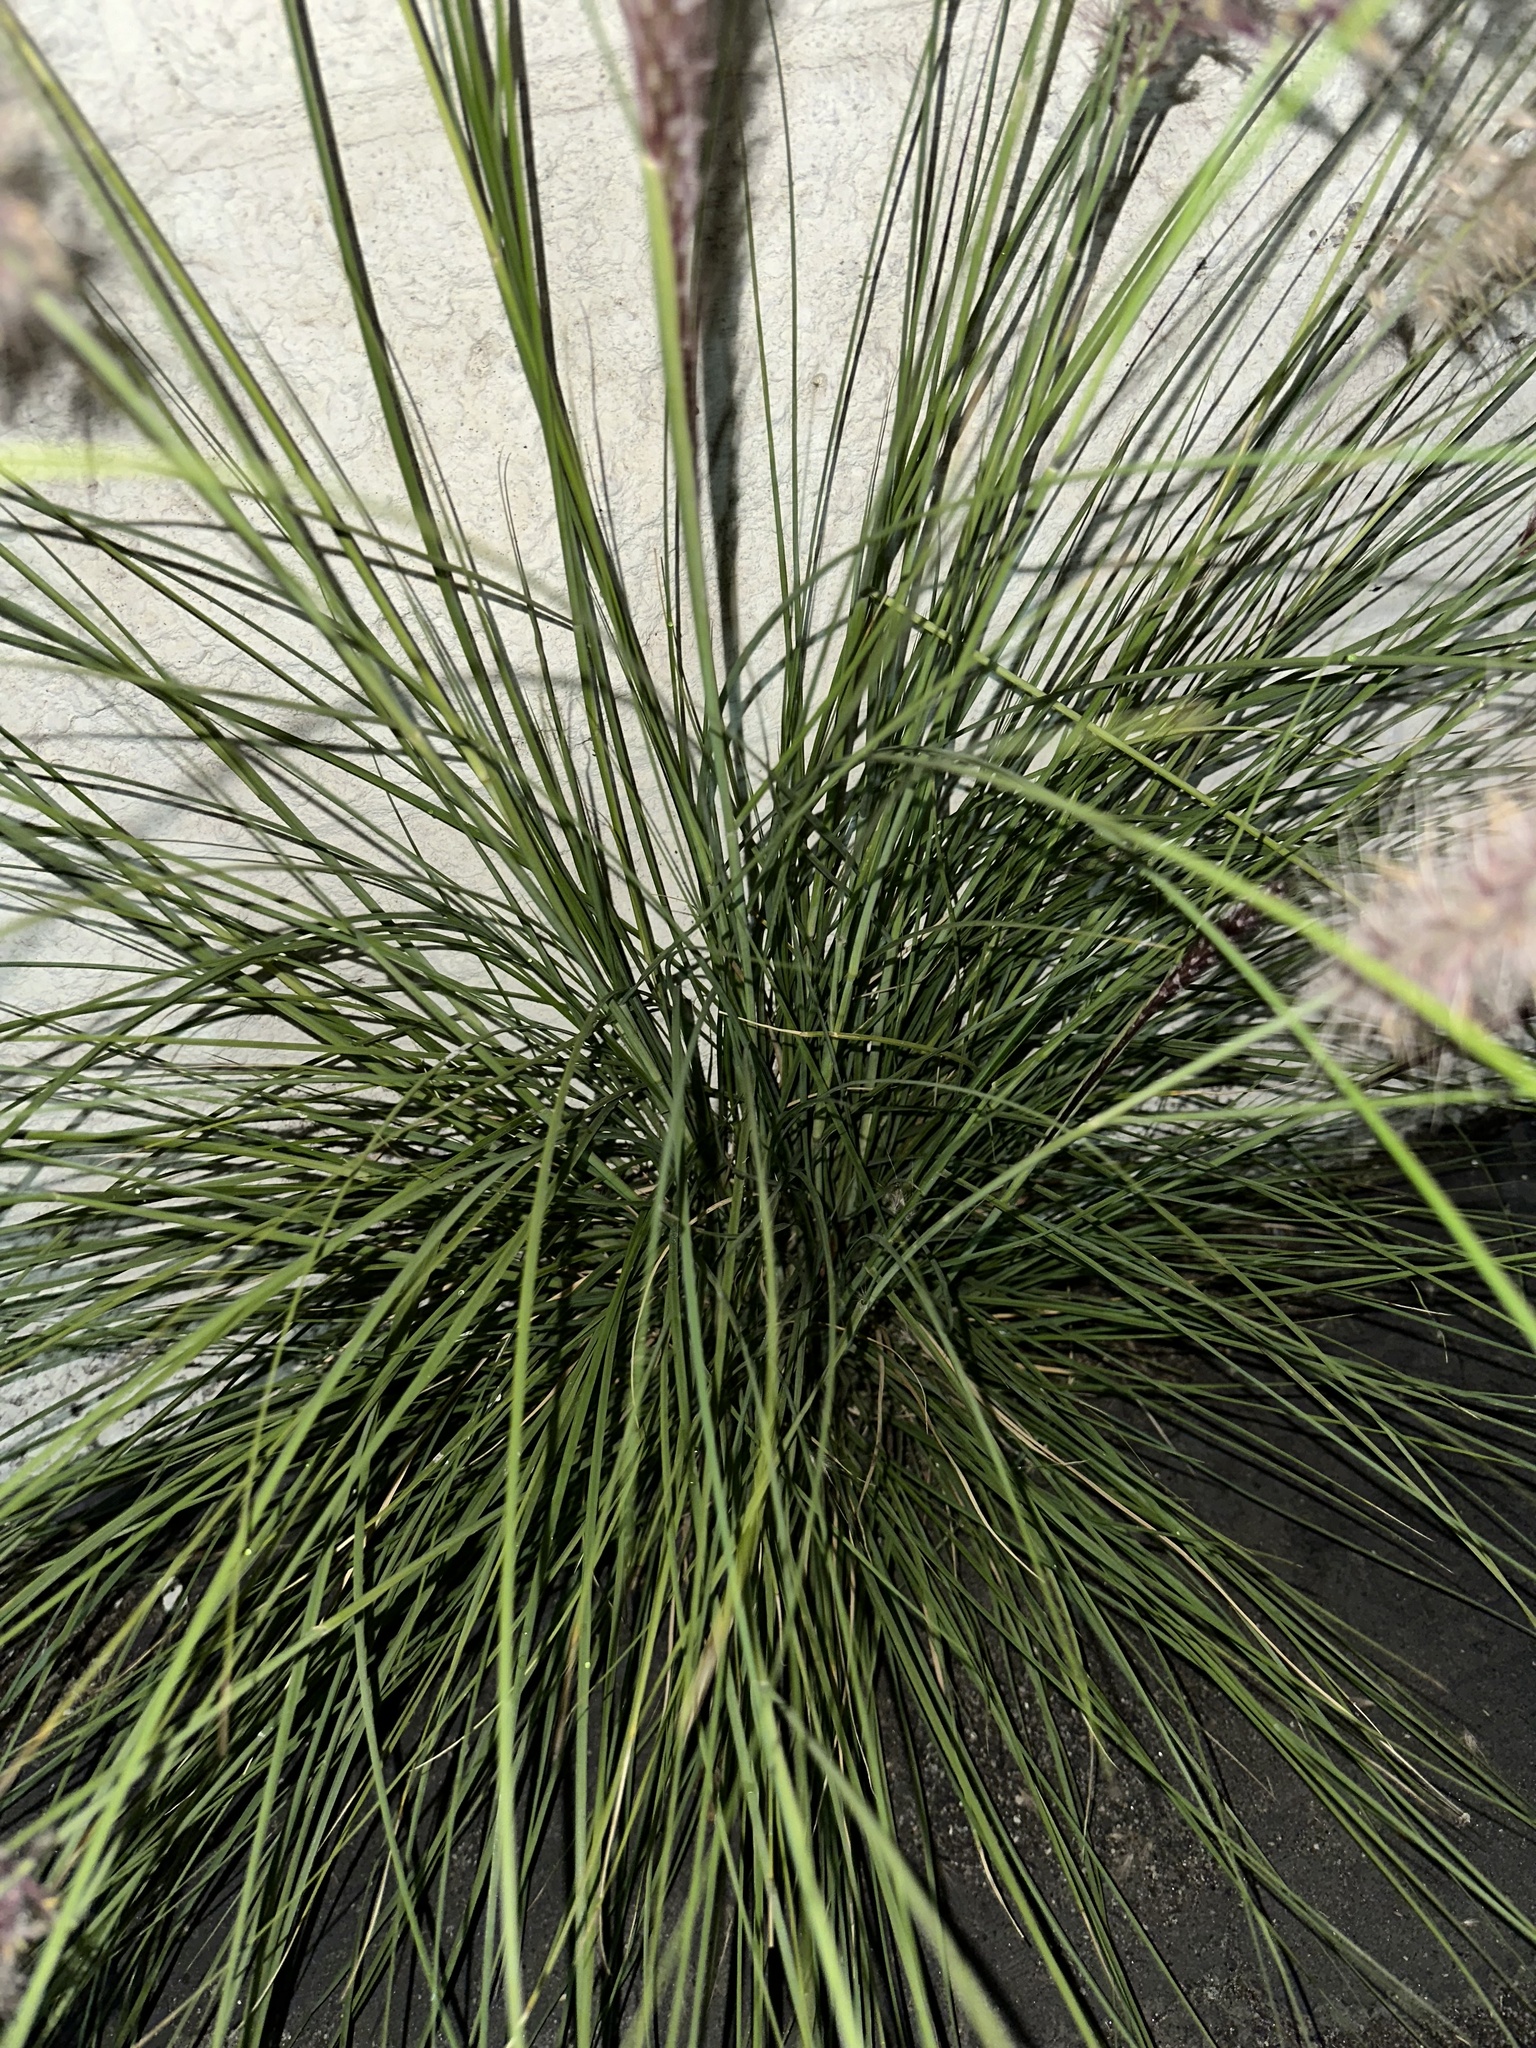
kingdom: Plantae
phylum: Tracheophyta
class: Liliopsida
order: Poales
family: Poaceae
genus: Cenchrus
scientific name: Cenchrus setaceus
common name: Crimson fountaingrass
